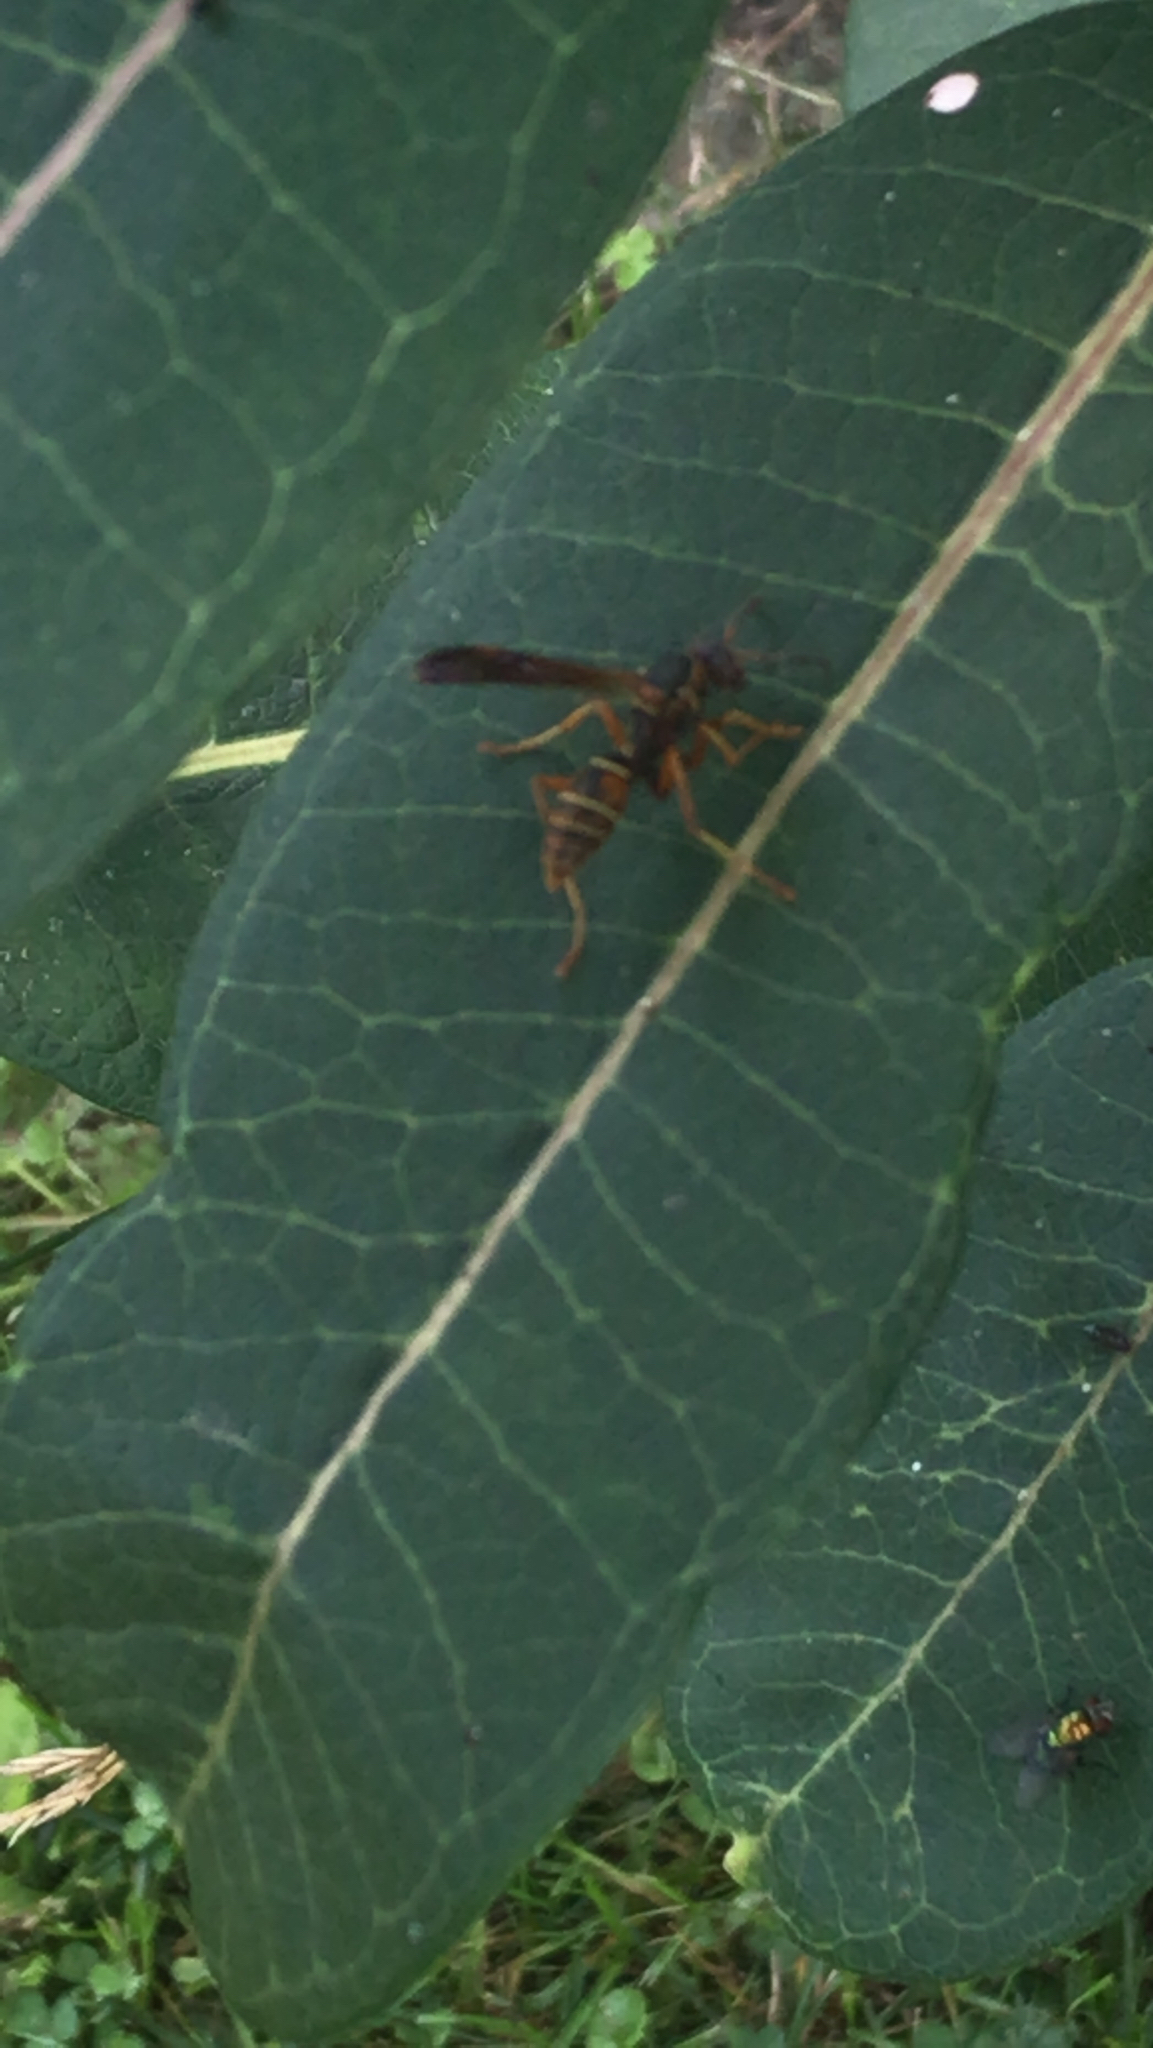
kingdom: Animalia
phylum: Arthropoda
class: Insecta
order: Hymenoptera
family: Eumenidae
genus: Polistes
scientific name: Polistes fuscatus
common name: Dark paper wasp
